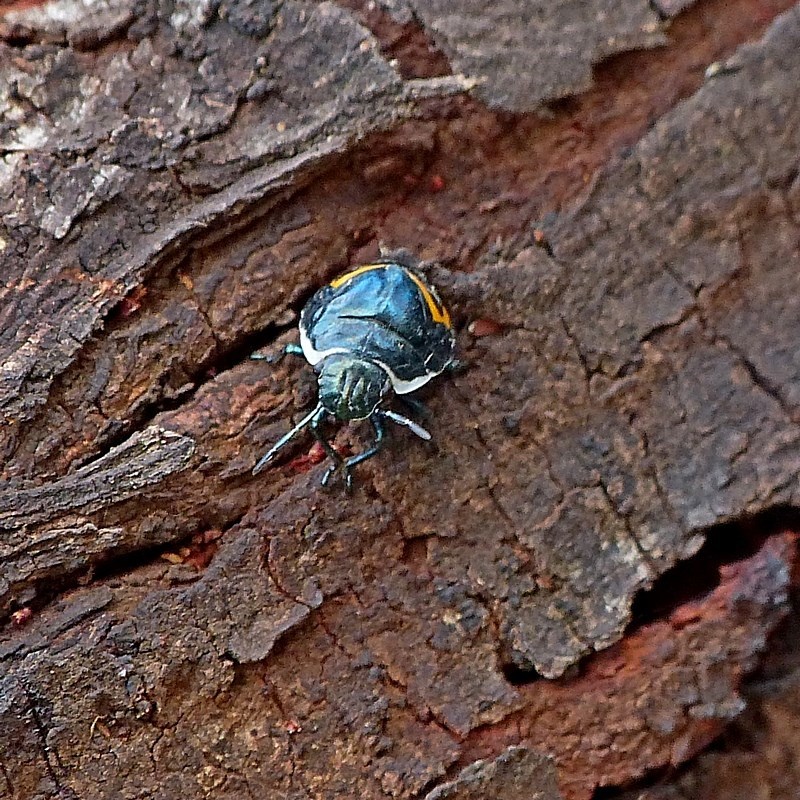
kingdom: Animalia
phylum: Arthropoda
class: Insecta
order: Hemiptera
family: Scutelleridae
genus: Scutiphora
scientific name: Scutiphora pedicellata
